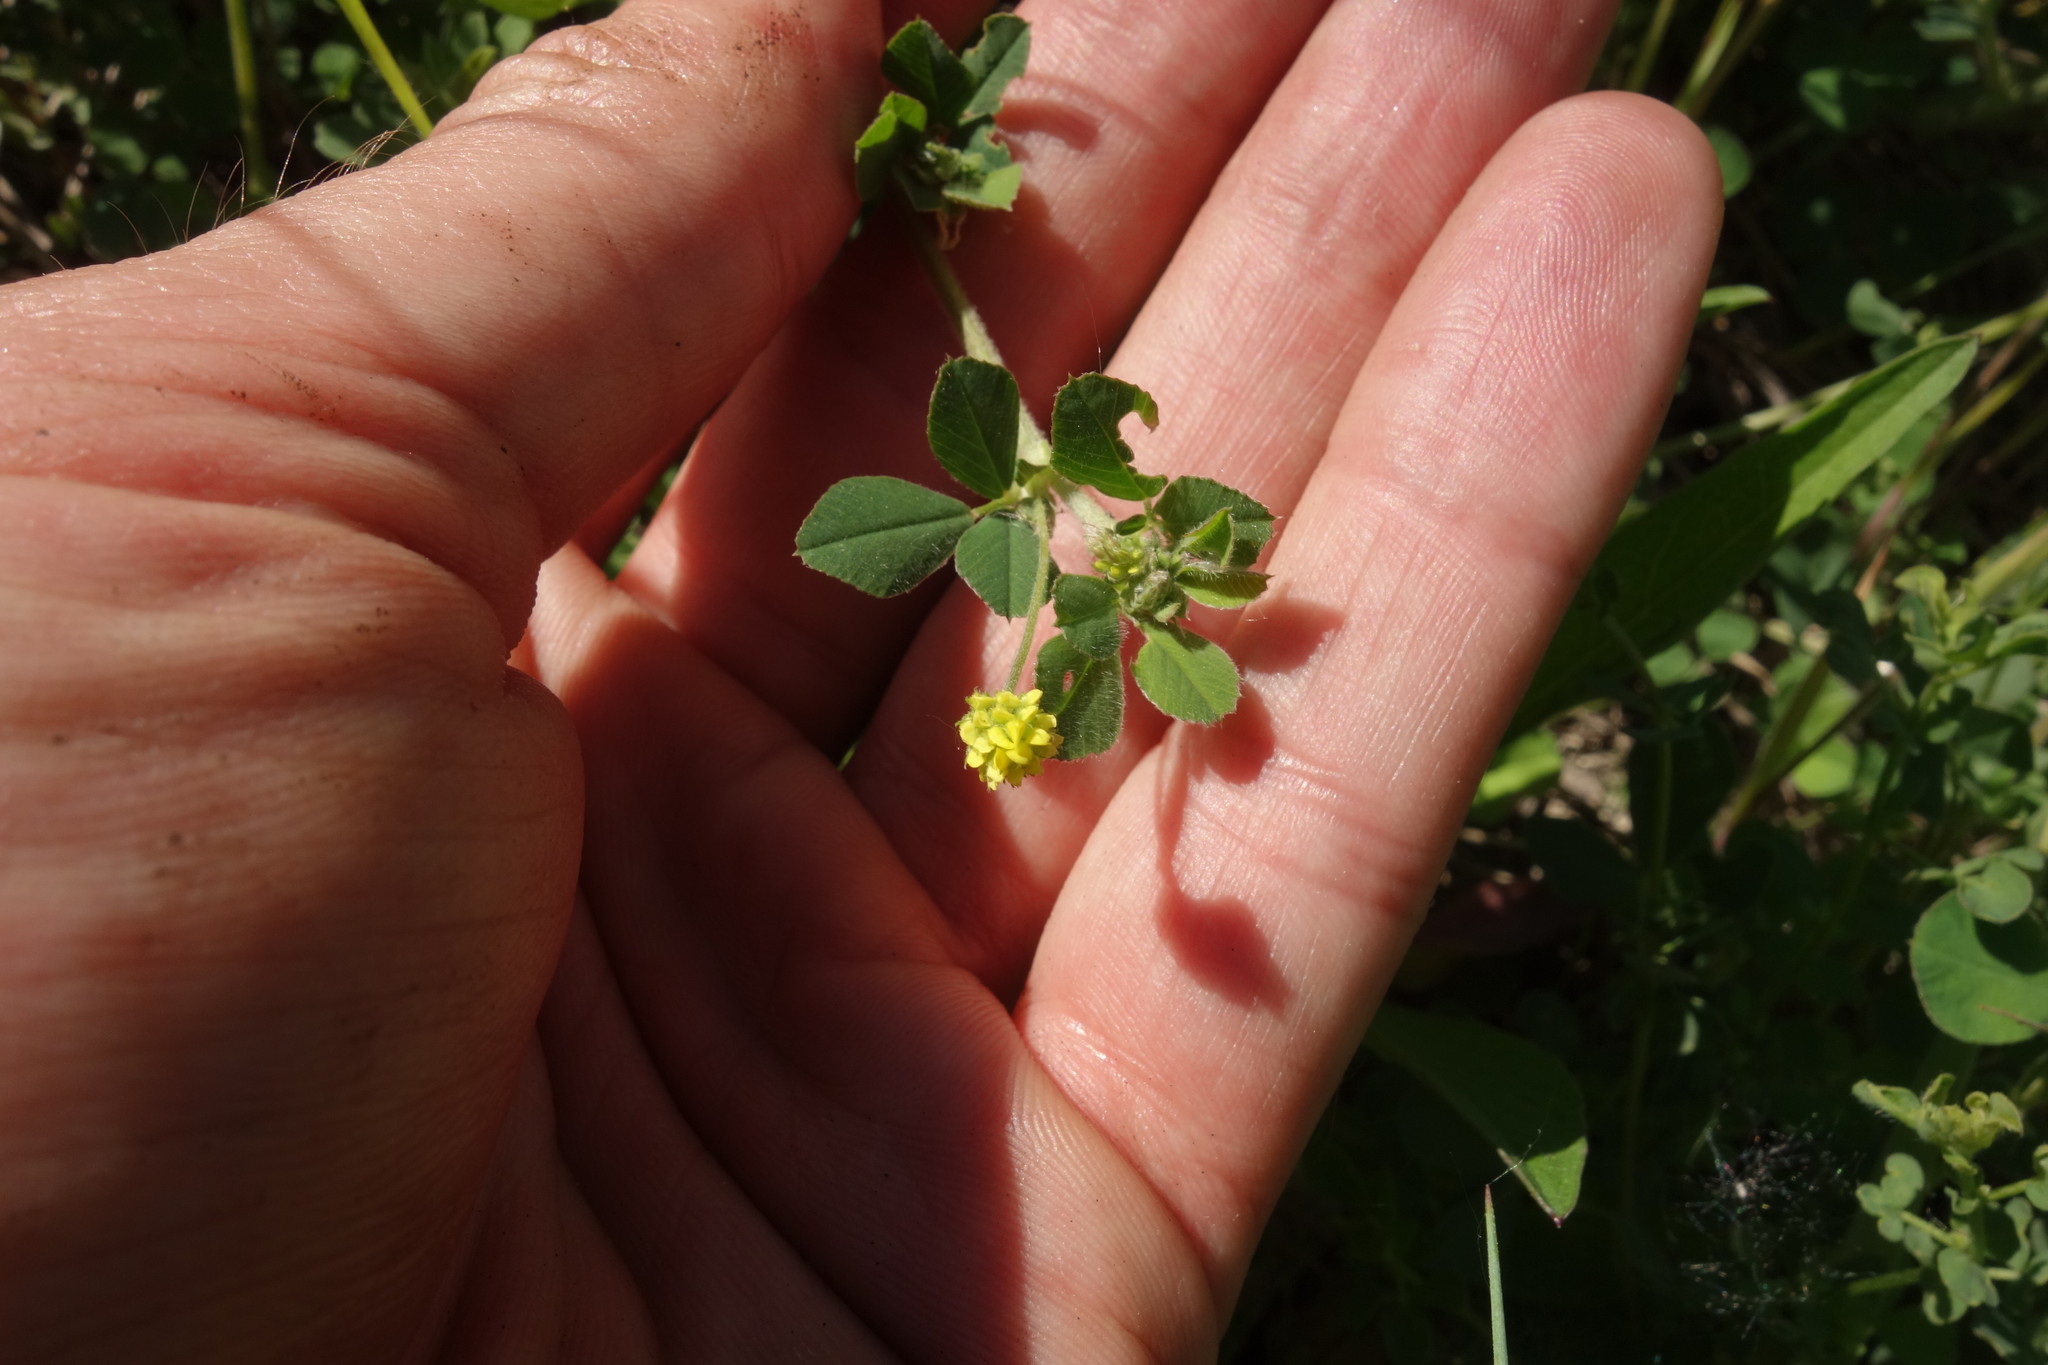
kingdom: Plantae
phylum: Tracheophyta
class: Magnoliopsida
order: Fabales
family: Fabaceae
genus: Medicago
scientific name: Medicago lupulina
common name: Black medick
